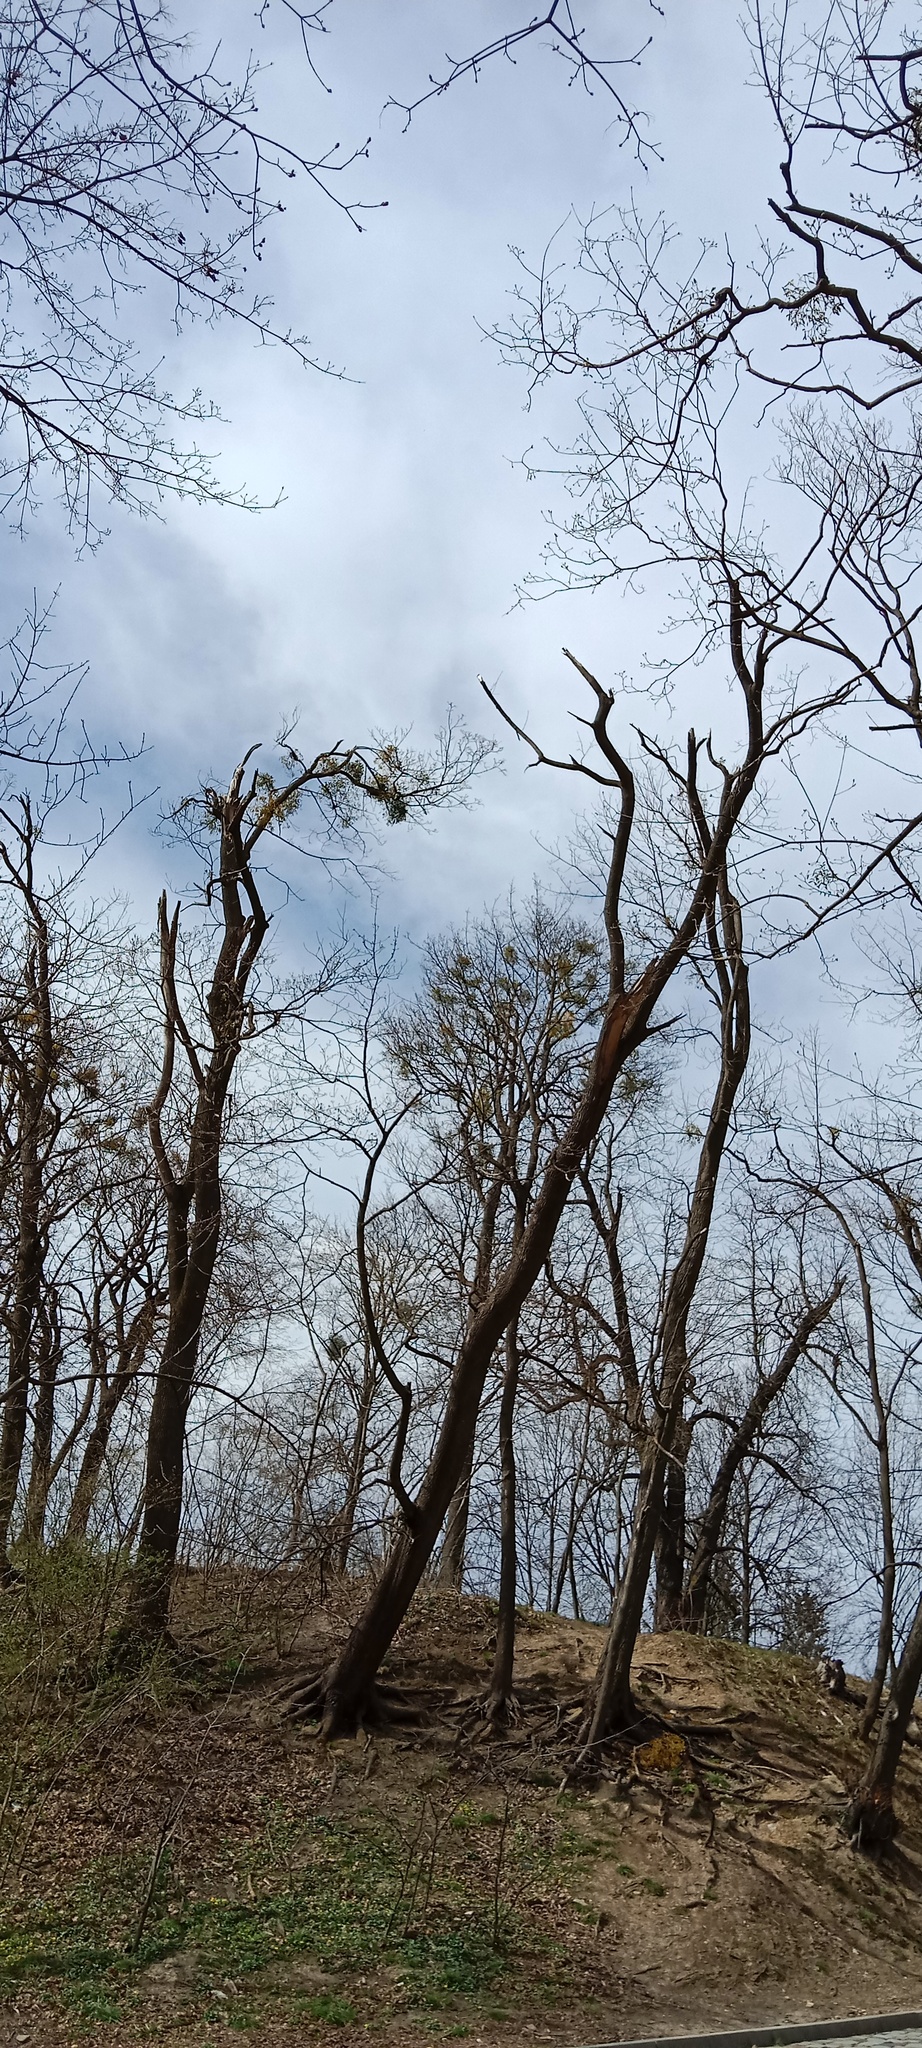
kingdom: Plantae
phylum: Tracheophyta
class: Magnoliopsida
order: Santalales
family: Viscaceae
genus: Viscum
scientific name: Viscum album
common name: Mistletoe
